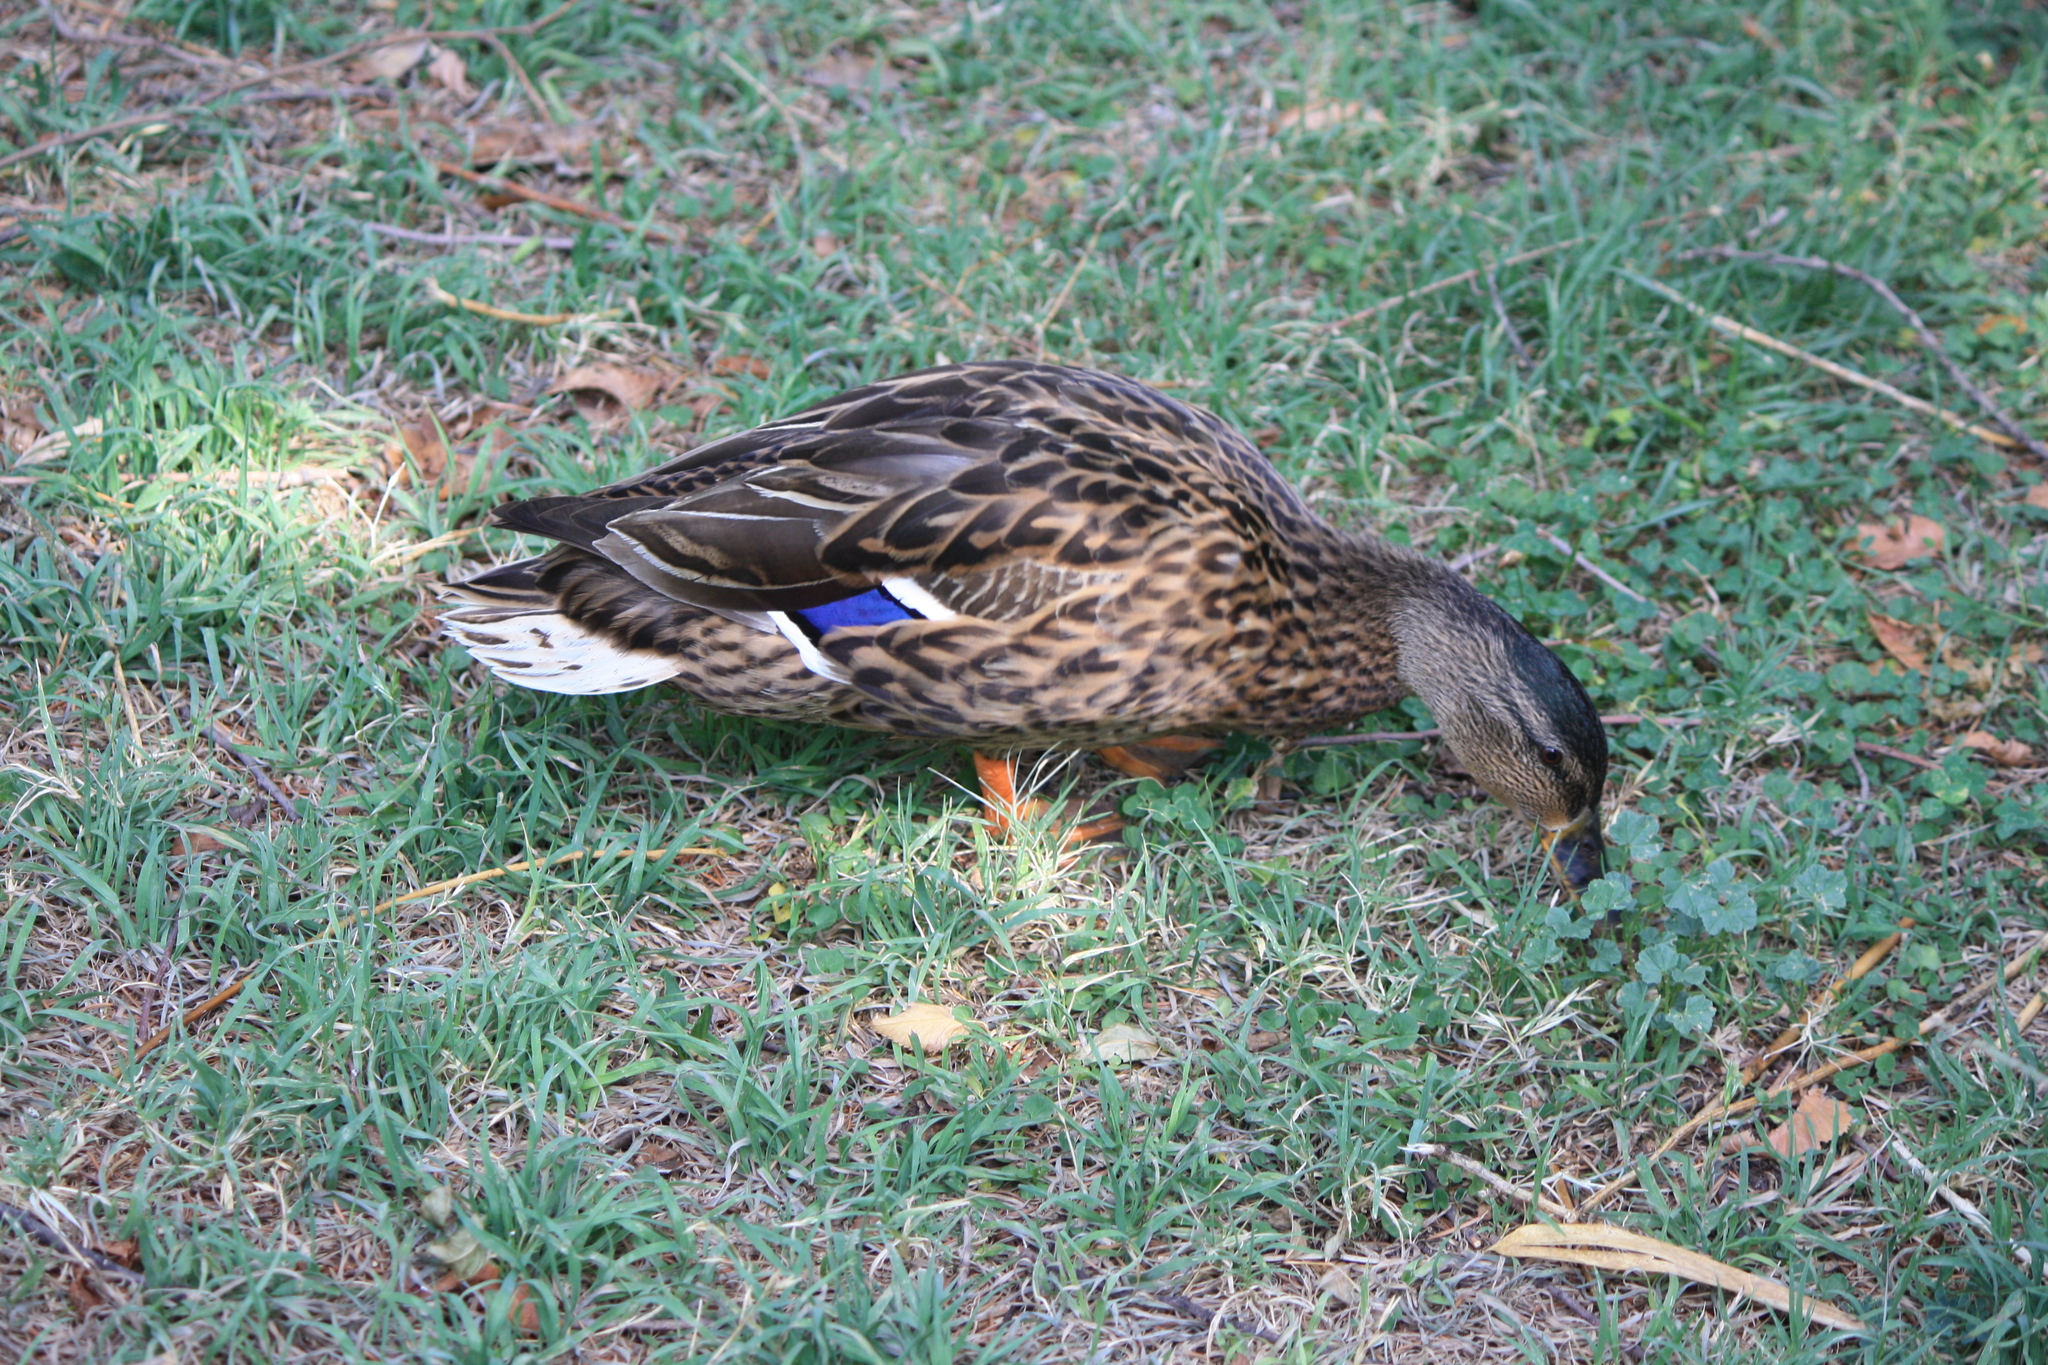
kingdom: Animalia
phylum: Chordata
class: Aves
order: Anseriformes
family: Anatidae
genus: Anas
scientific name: Anas platyrhynchos
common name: Mallard
